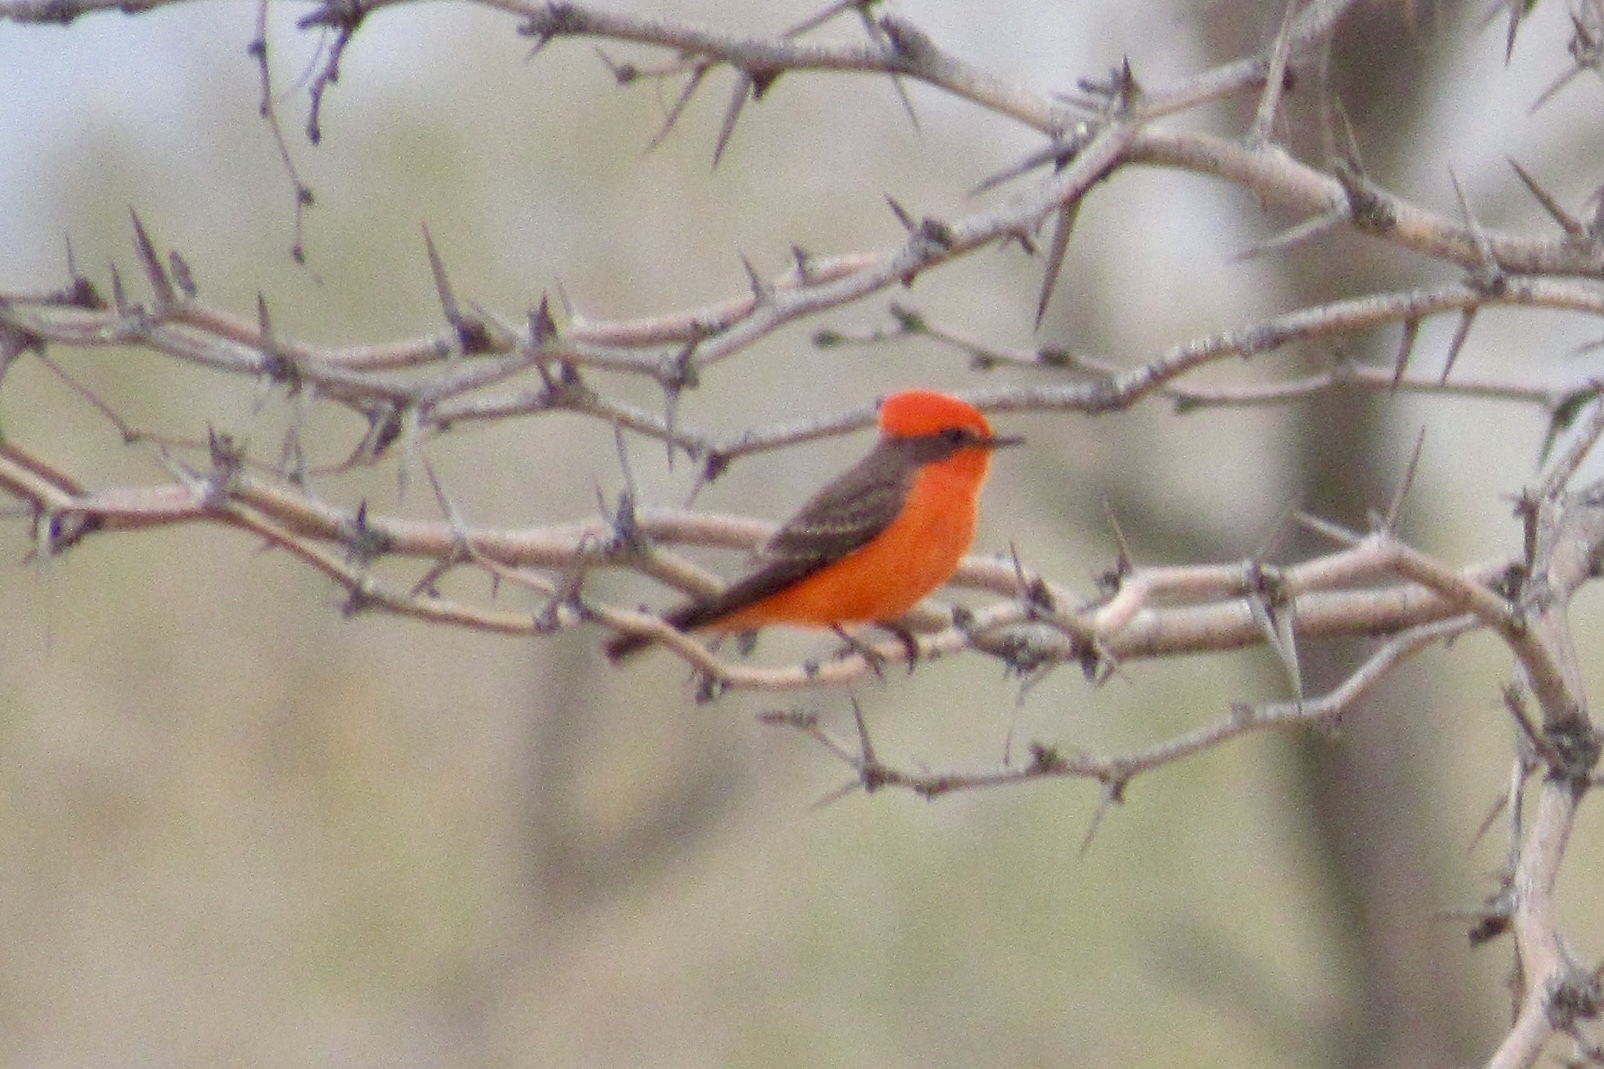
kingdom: Animalia
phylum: Chordata
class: Aves
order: Passeriformes
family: Tyrannidae
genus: Pyrocephalus
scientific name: Pyrocephalus rubinus
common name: Vermilion flycatcher
